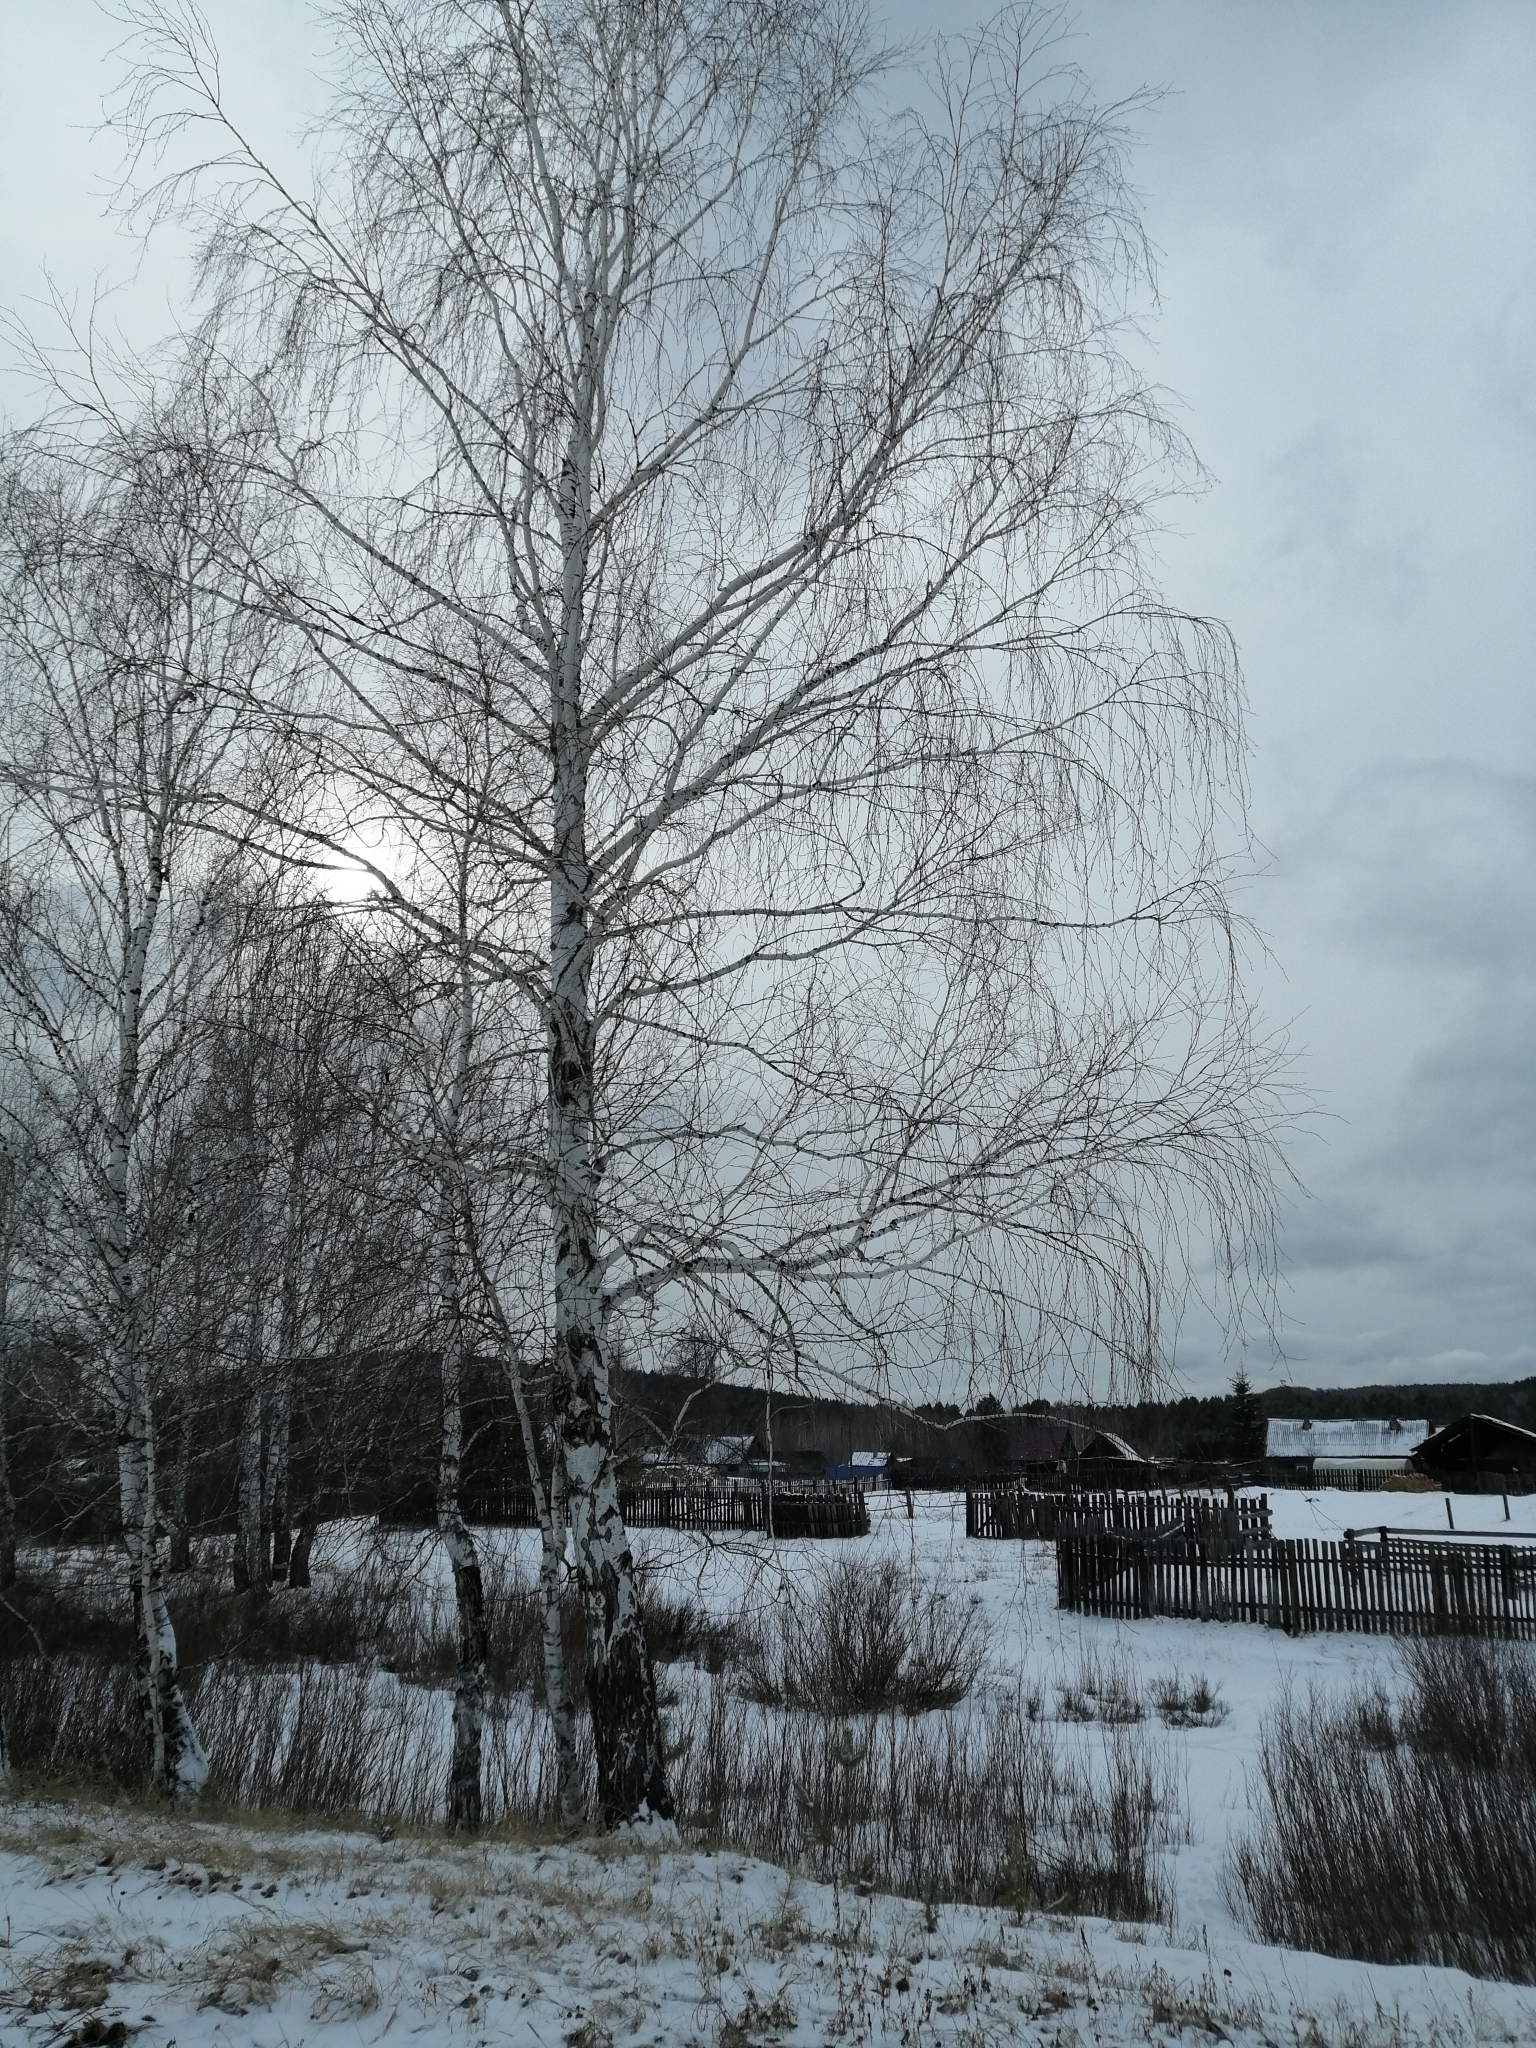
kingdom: Plantae
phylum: Tracheophyta
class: Magnoliopsida
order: Fagales
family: Betulaceae
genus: Betula
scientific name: Betula pendula
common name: Silver birch
